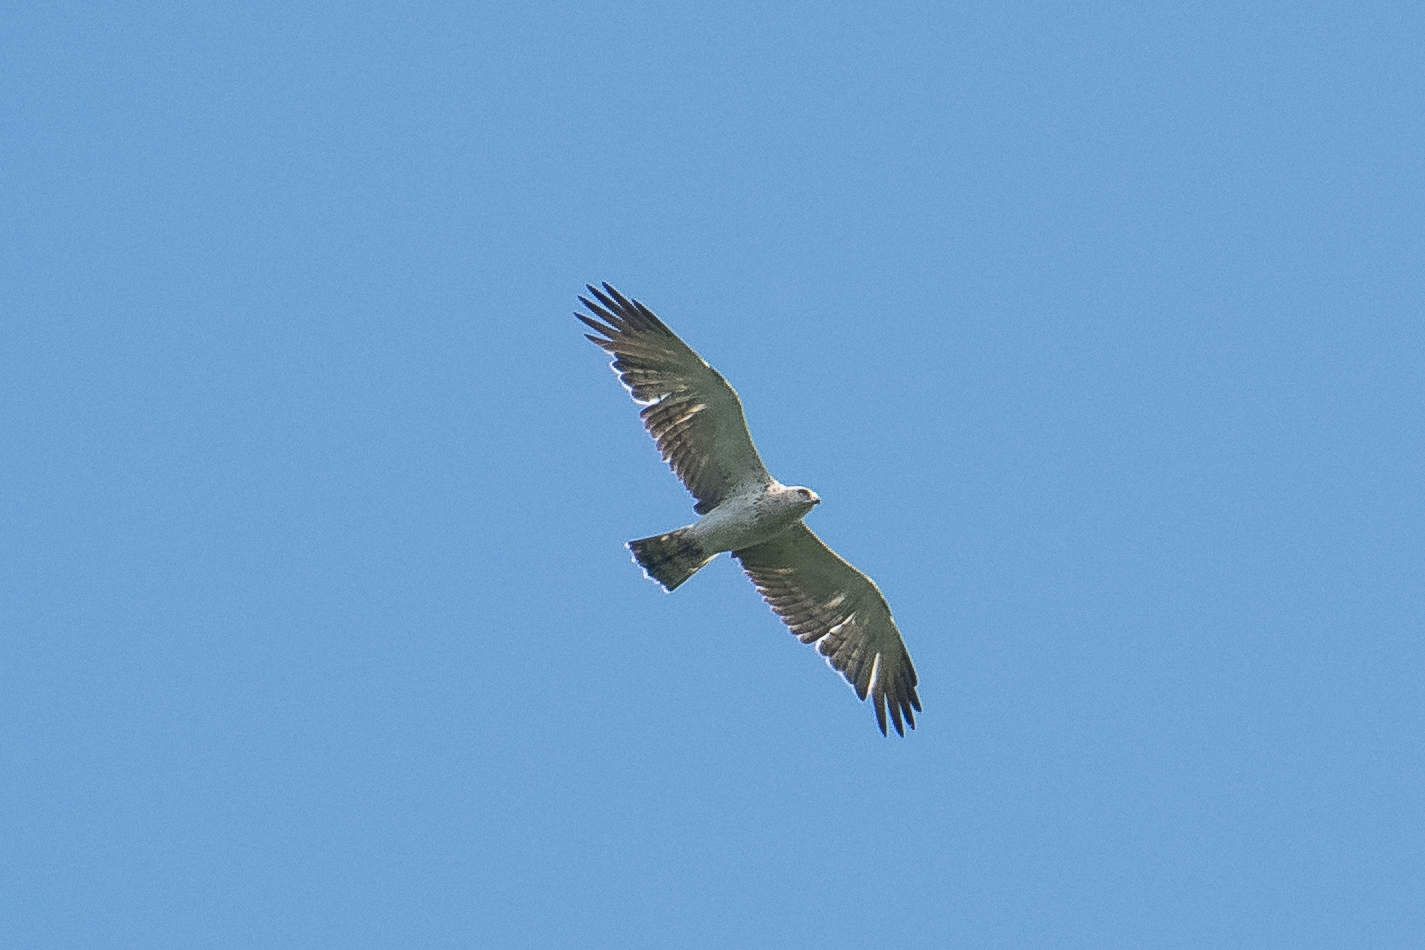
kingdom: Animalia
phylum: Chordata
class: Aves
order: Accipitriformes
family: Accipitridae
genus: Circaetus
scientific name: Circaetus gallicus
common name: Short-toed snake eagle
